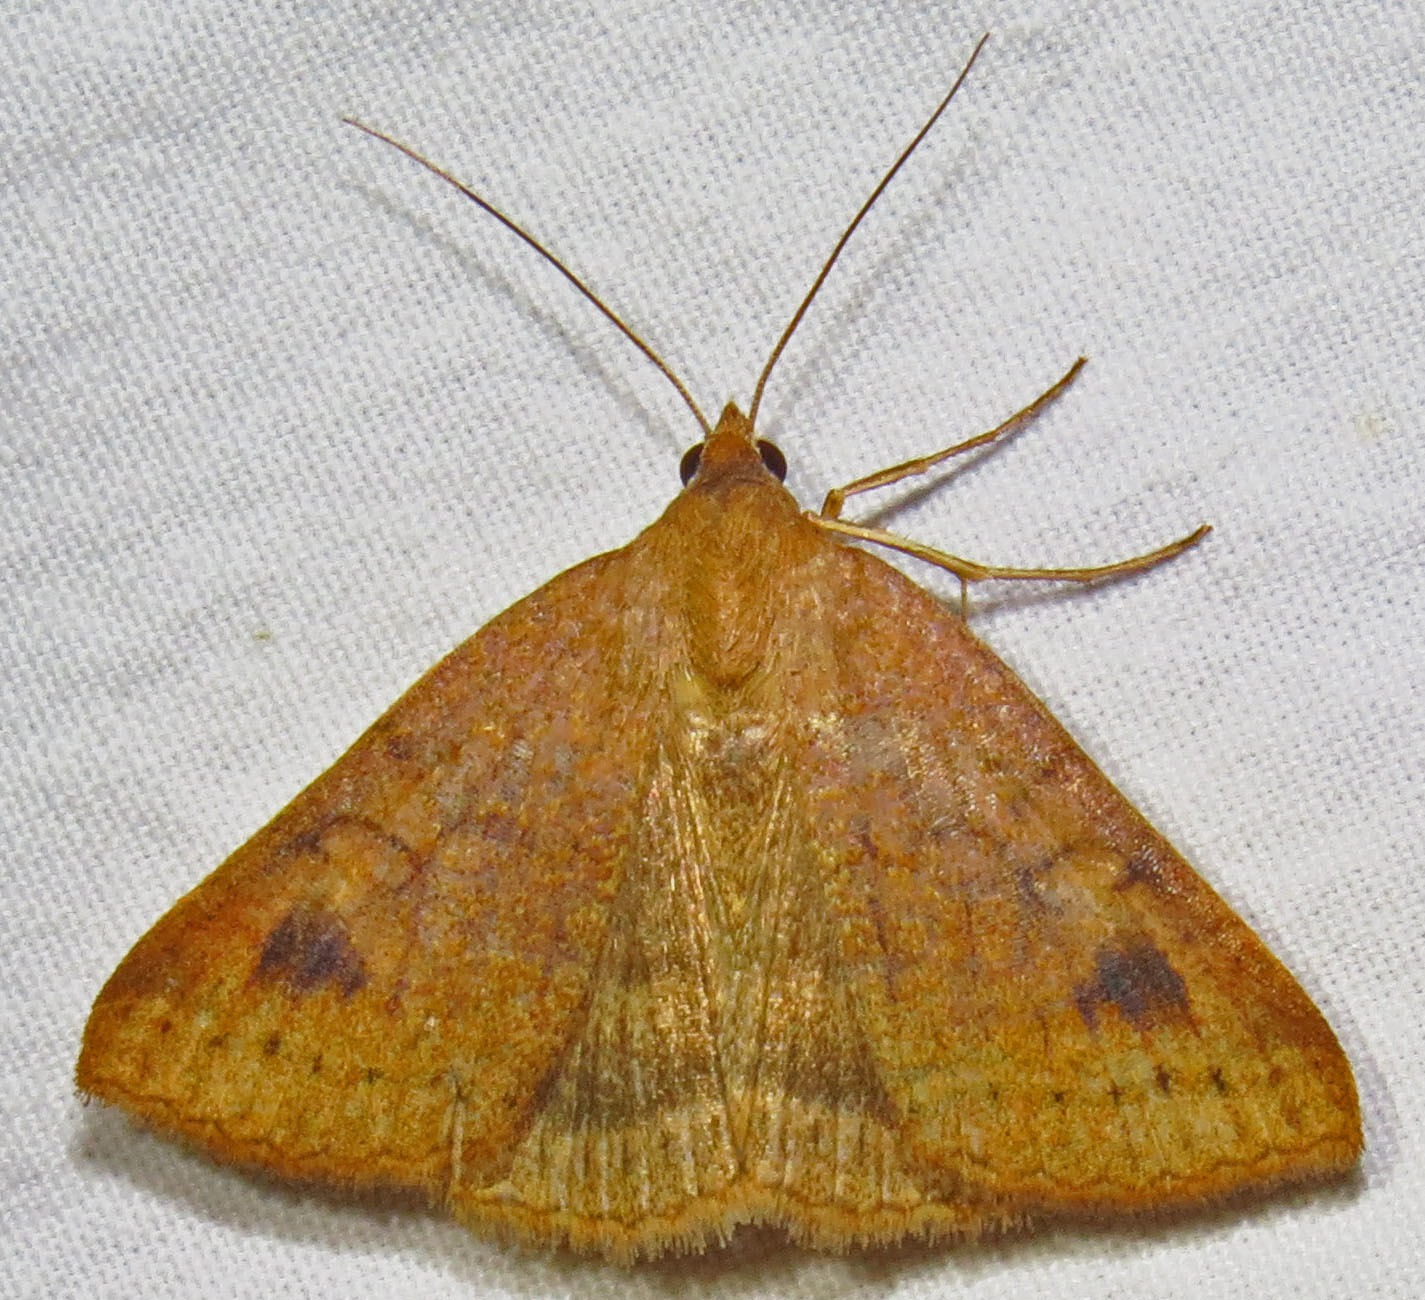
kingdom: Animalia
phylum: Arthropoda
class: Insecta
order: Lepidoptera
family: Erebidae
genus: Caenurgia
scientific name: Caenurgia chloropha
